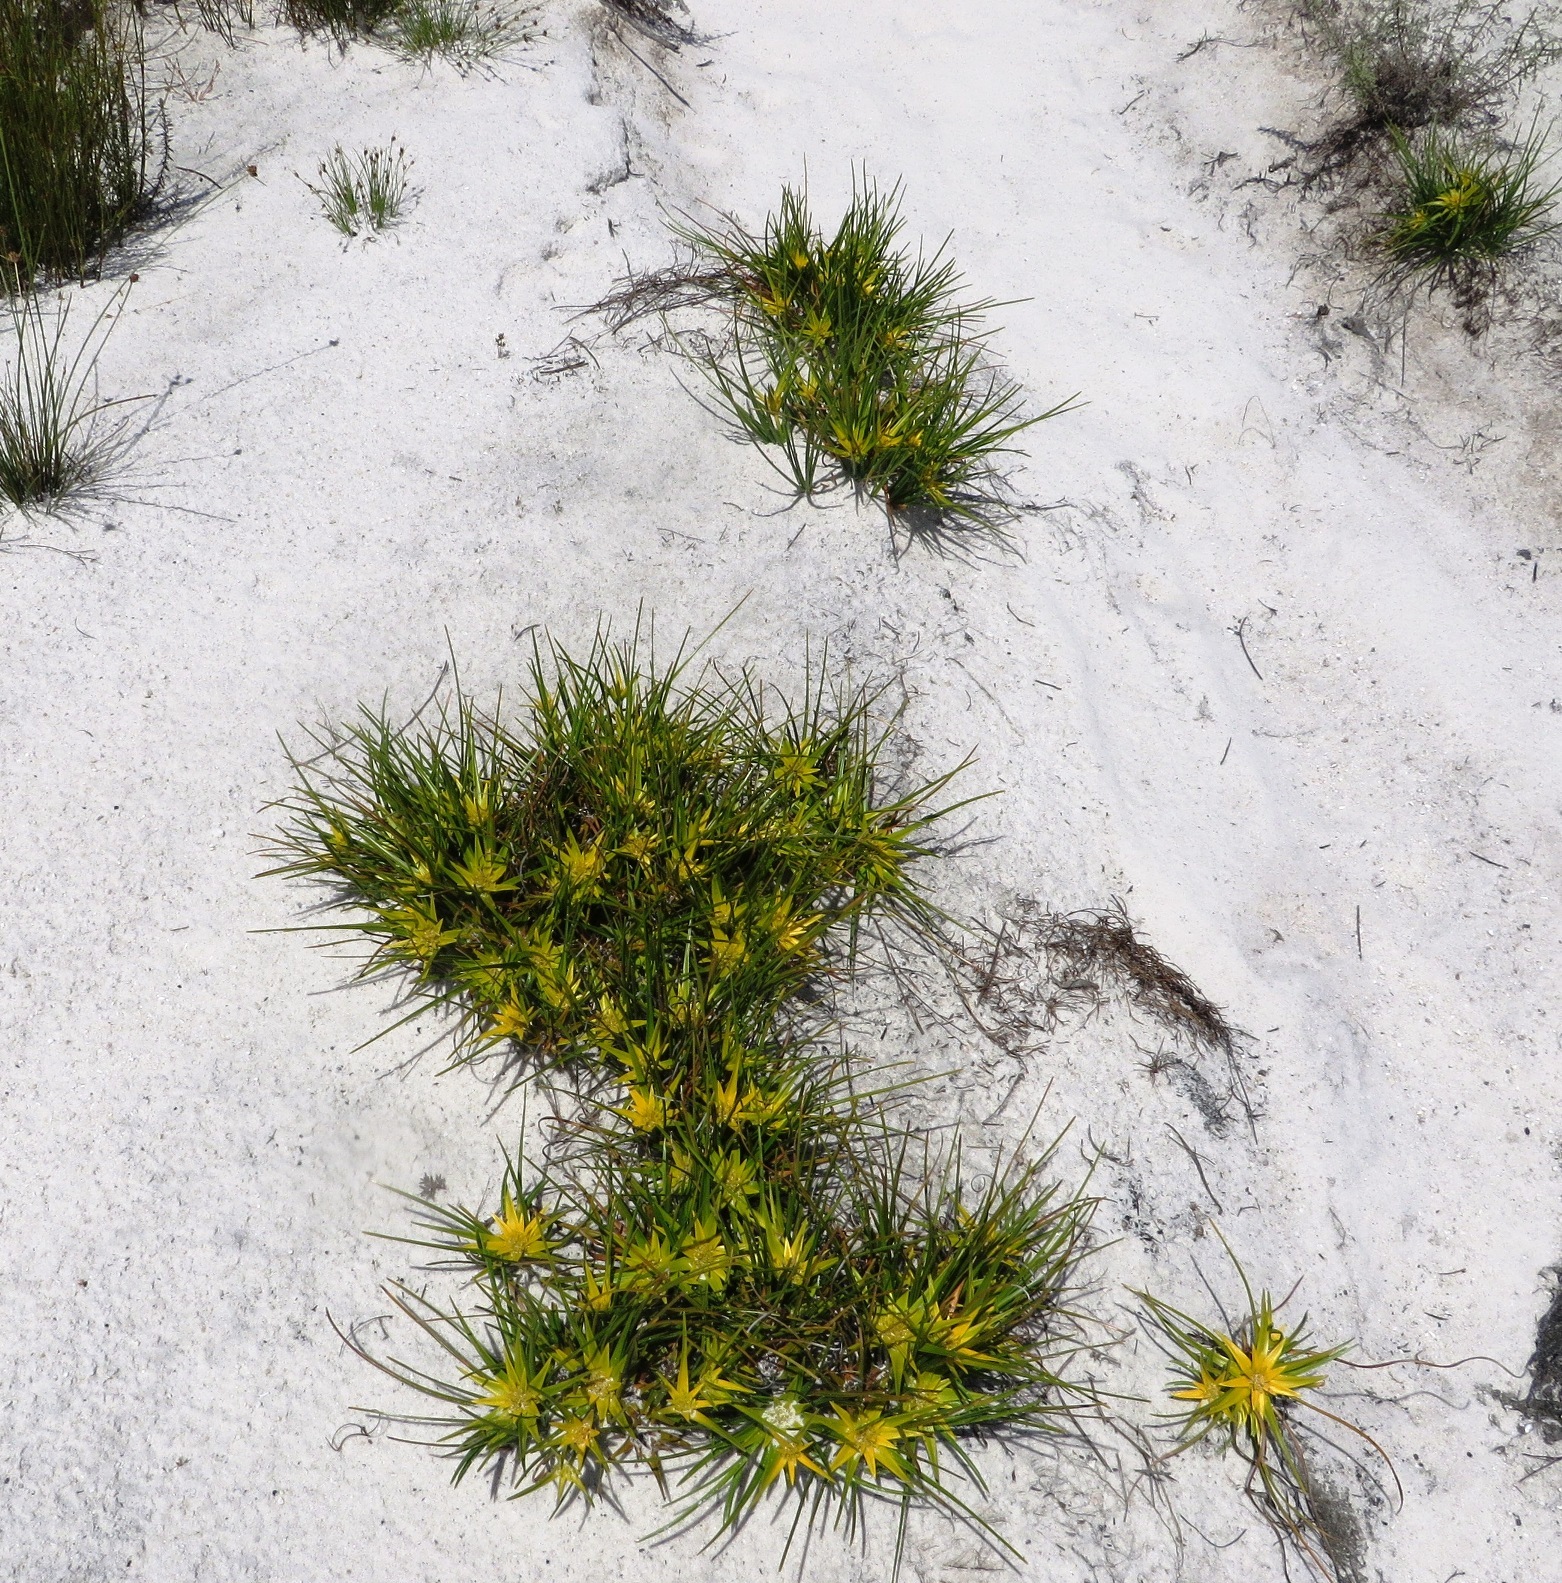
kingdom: Plantae
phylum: Tracheophyta
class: Liliopsida
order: Poales
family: Cyperaceae
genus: Ficinia
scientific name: Ficinia radiata
